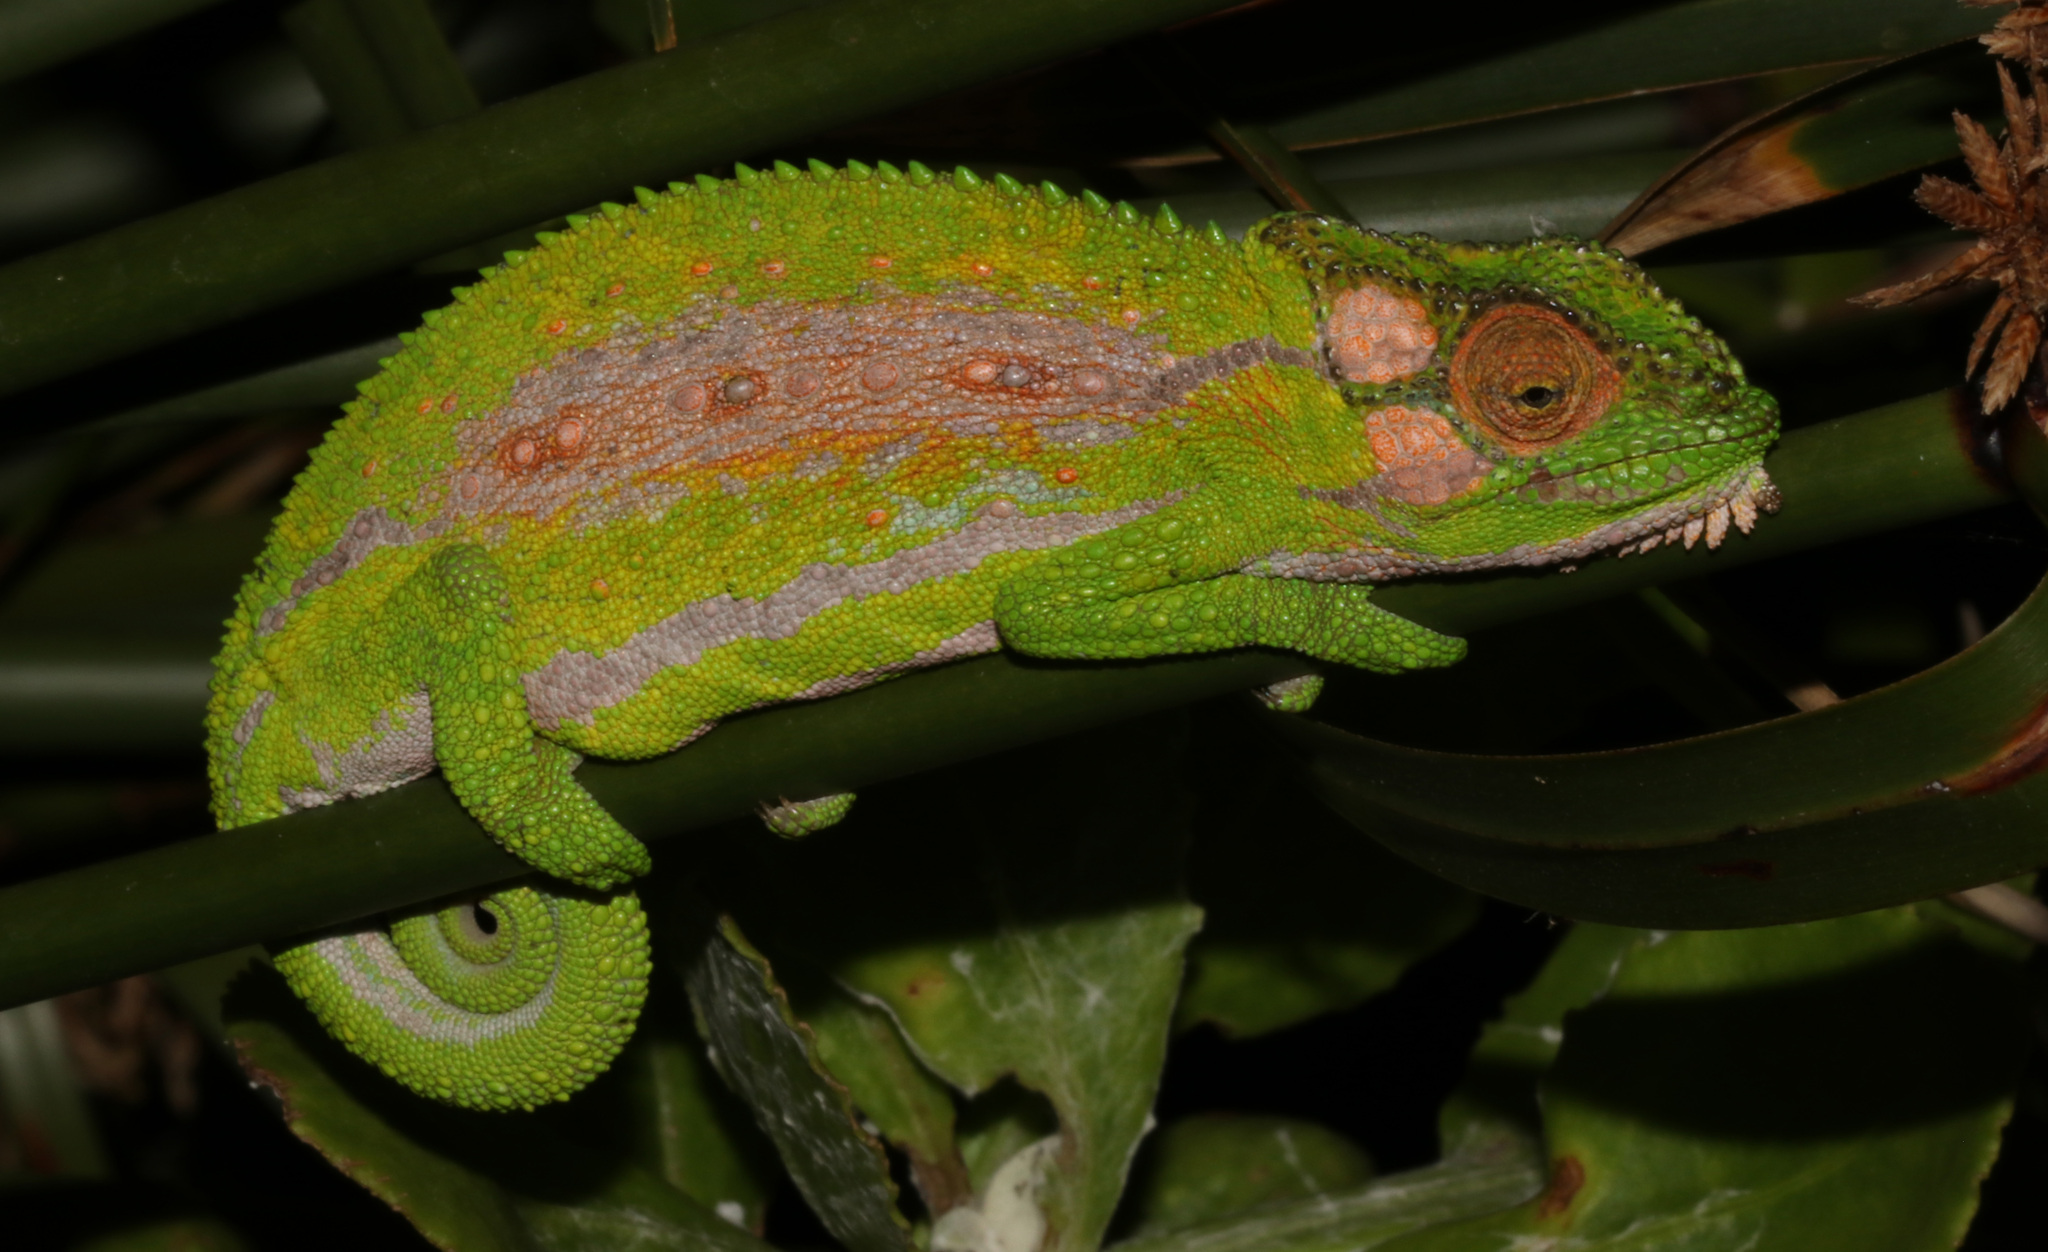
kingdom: Animalia
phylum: Chordata
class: Squamata
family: Chamaeleonidae
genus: Bradypodion
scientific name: Bradypodion pumilum
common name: Cape dwarf chameleon
